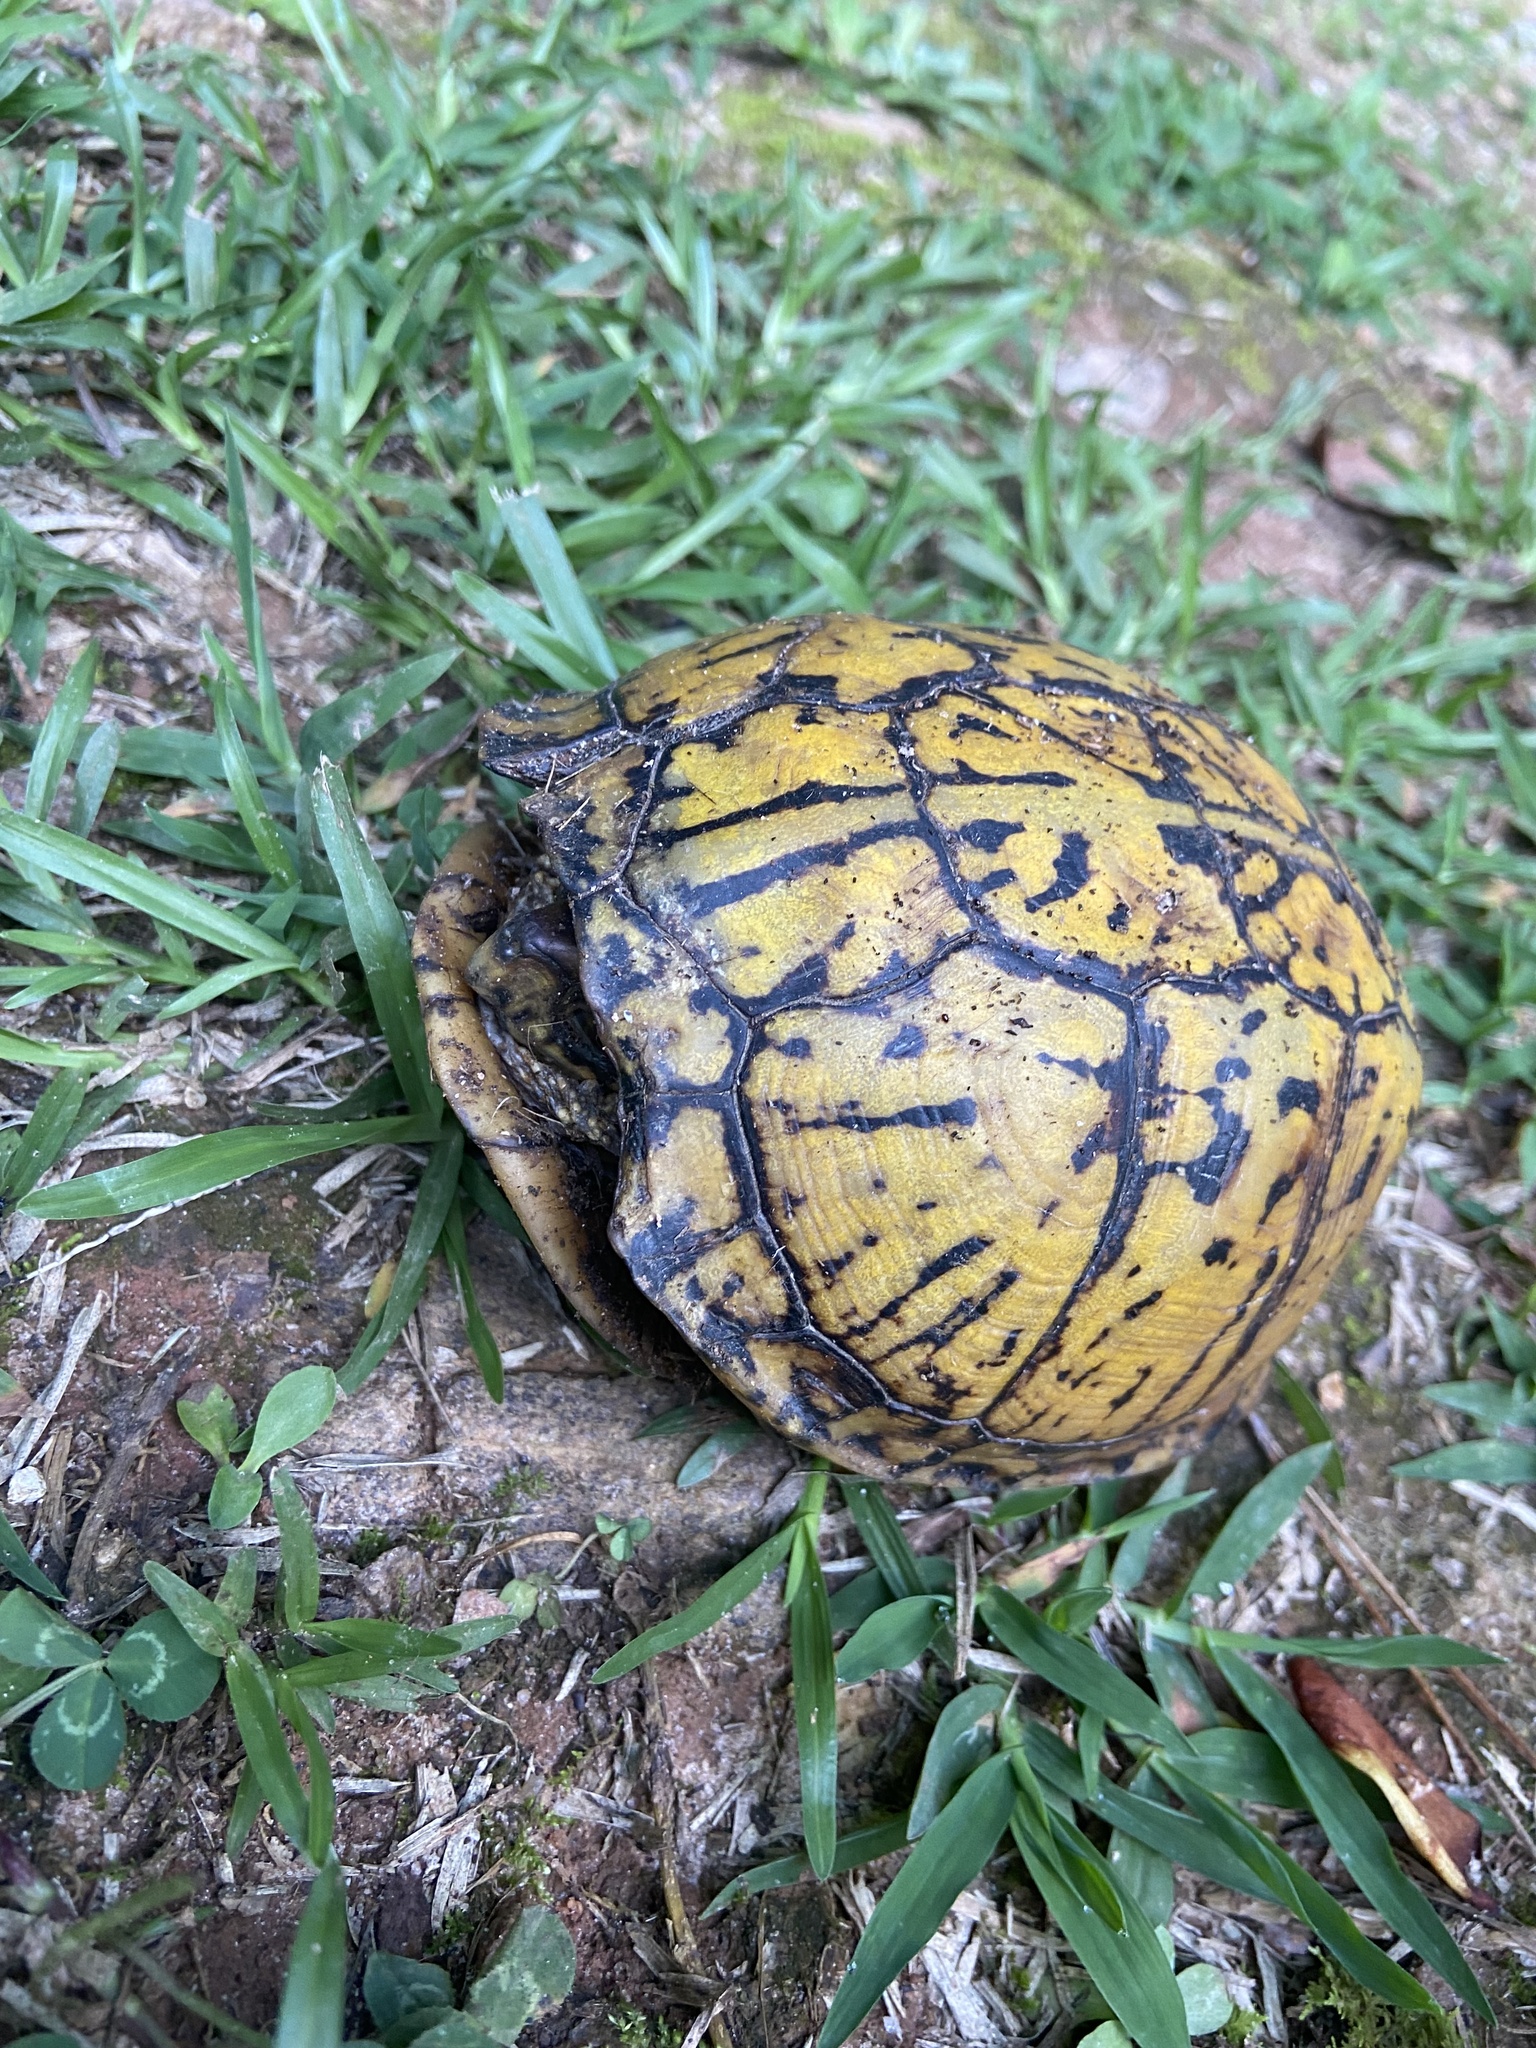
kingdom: Animalia
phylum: Chordata
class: Testudines
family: Emydidae
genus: Terrapene
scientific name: Terrapene carolina
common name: Common box turtle
